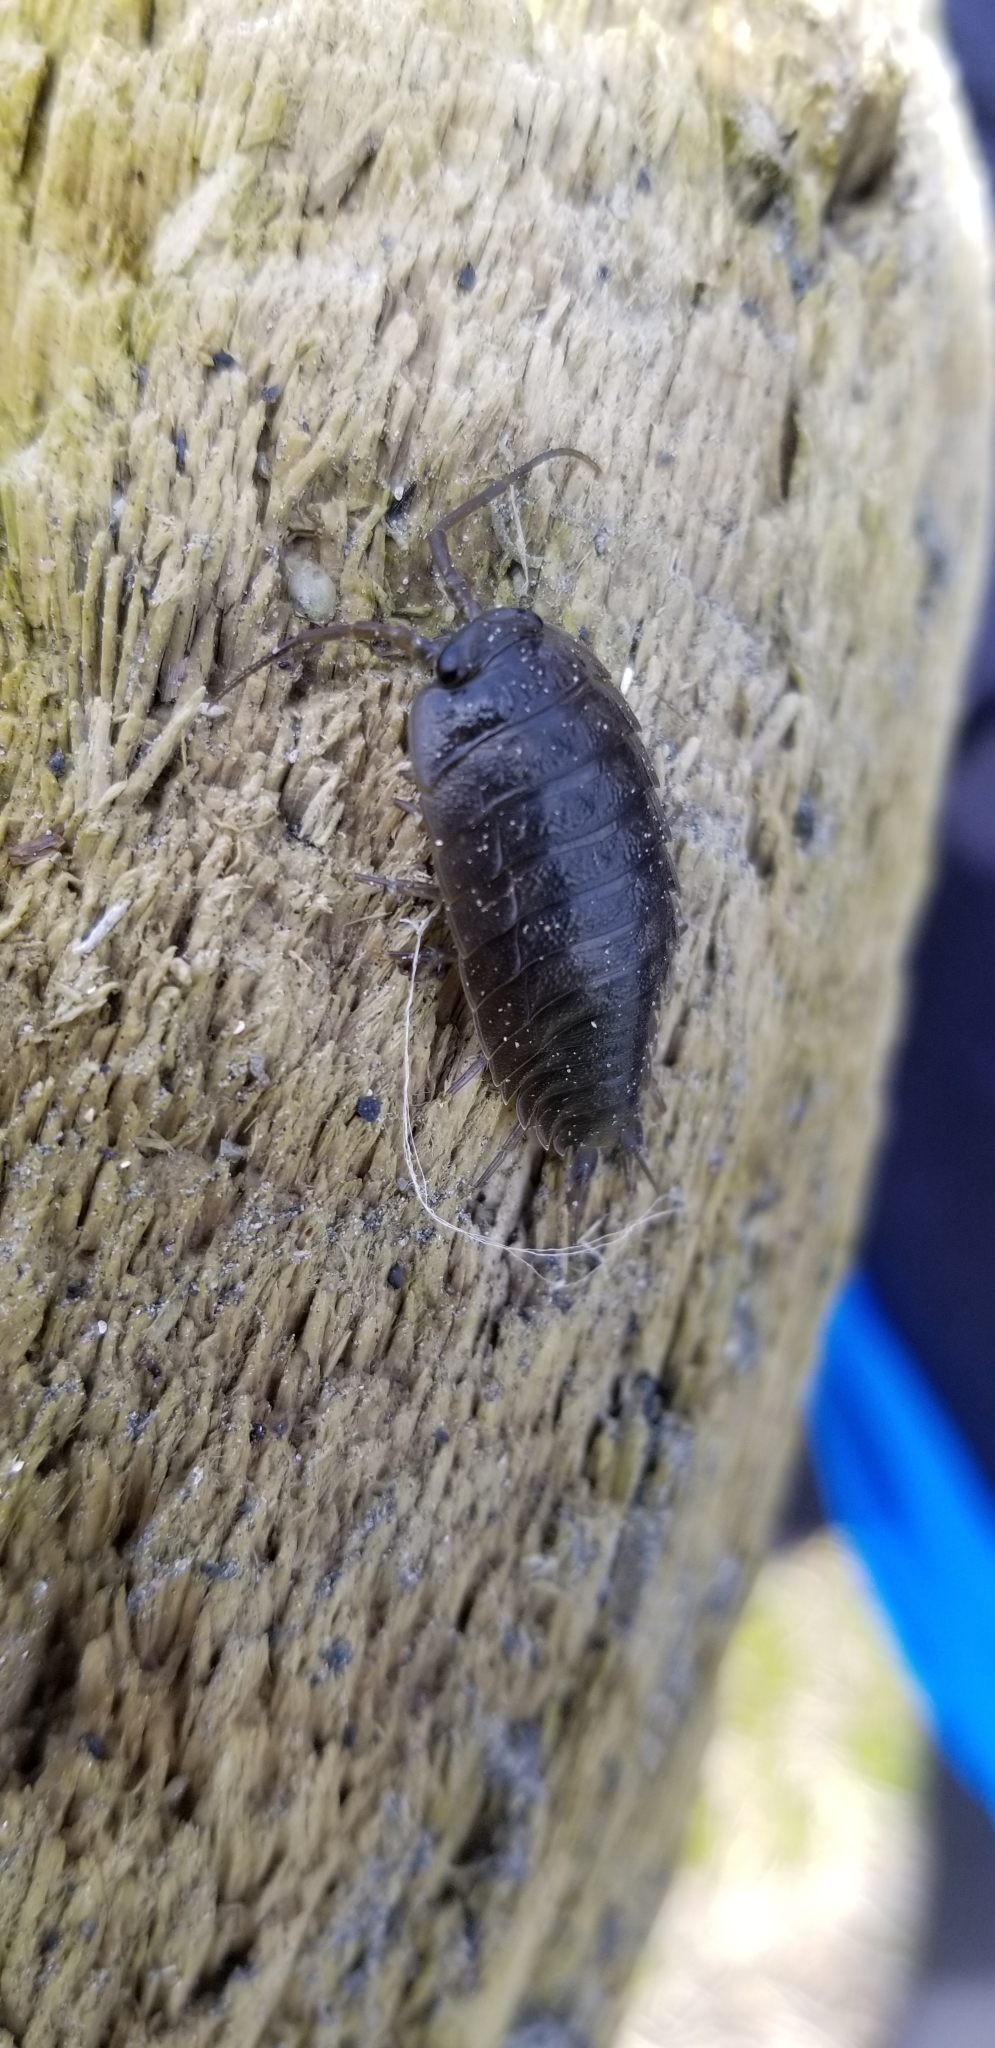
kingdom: Animalia
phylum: Arthropoda
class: Malacostraca
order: Isopoda
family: Ligiidae
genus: Ligia
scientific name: Ligia pallasii
